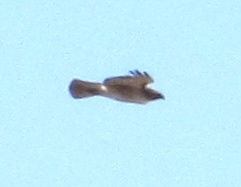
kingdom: Animalia
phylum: Chordata
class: Aves
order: Accipitriformes
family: Accipitridae
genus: Buteo
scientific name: Buteo jamaicensis
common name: Red-tailed hawk
